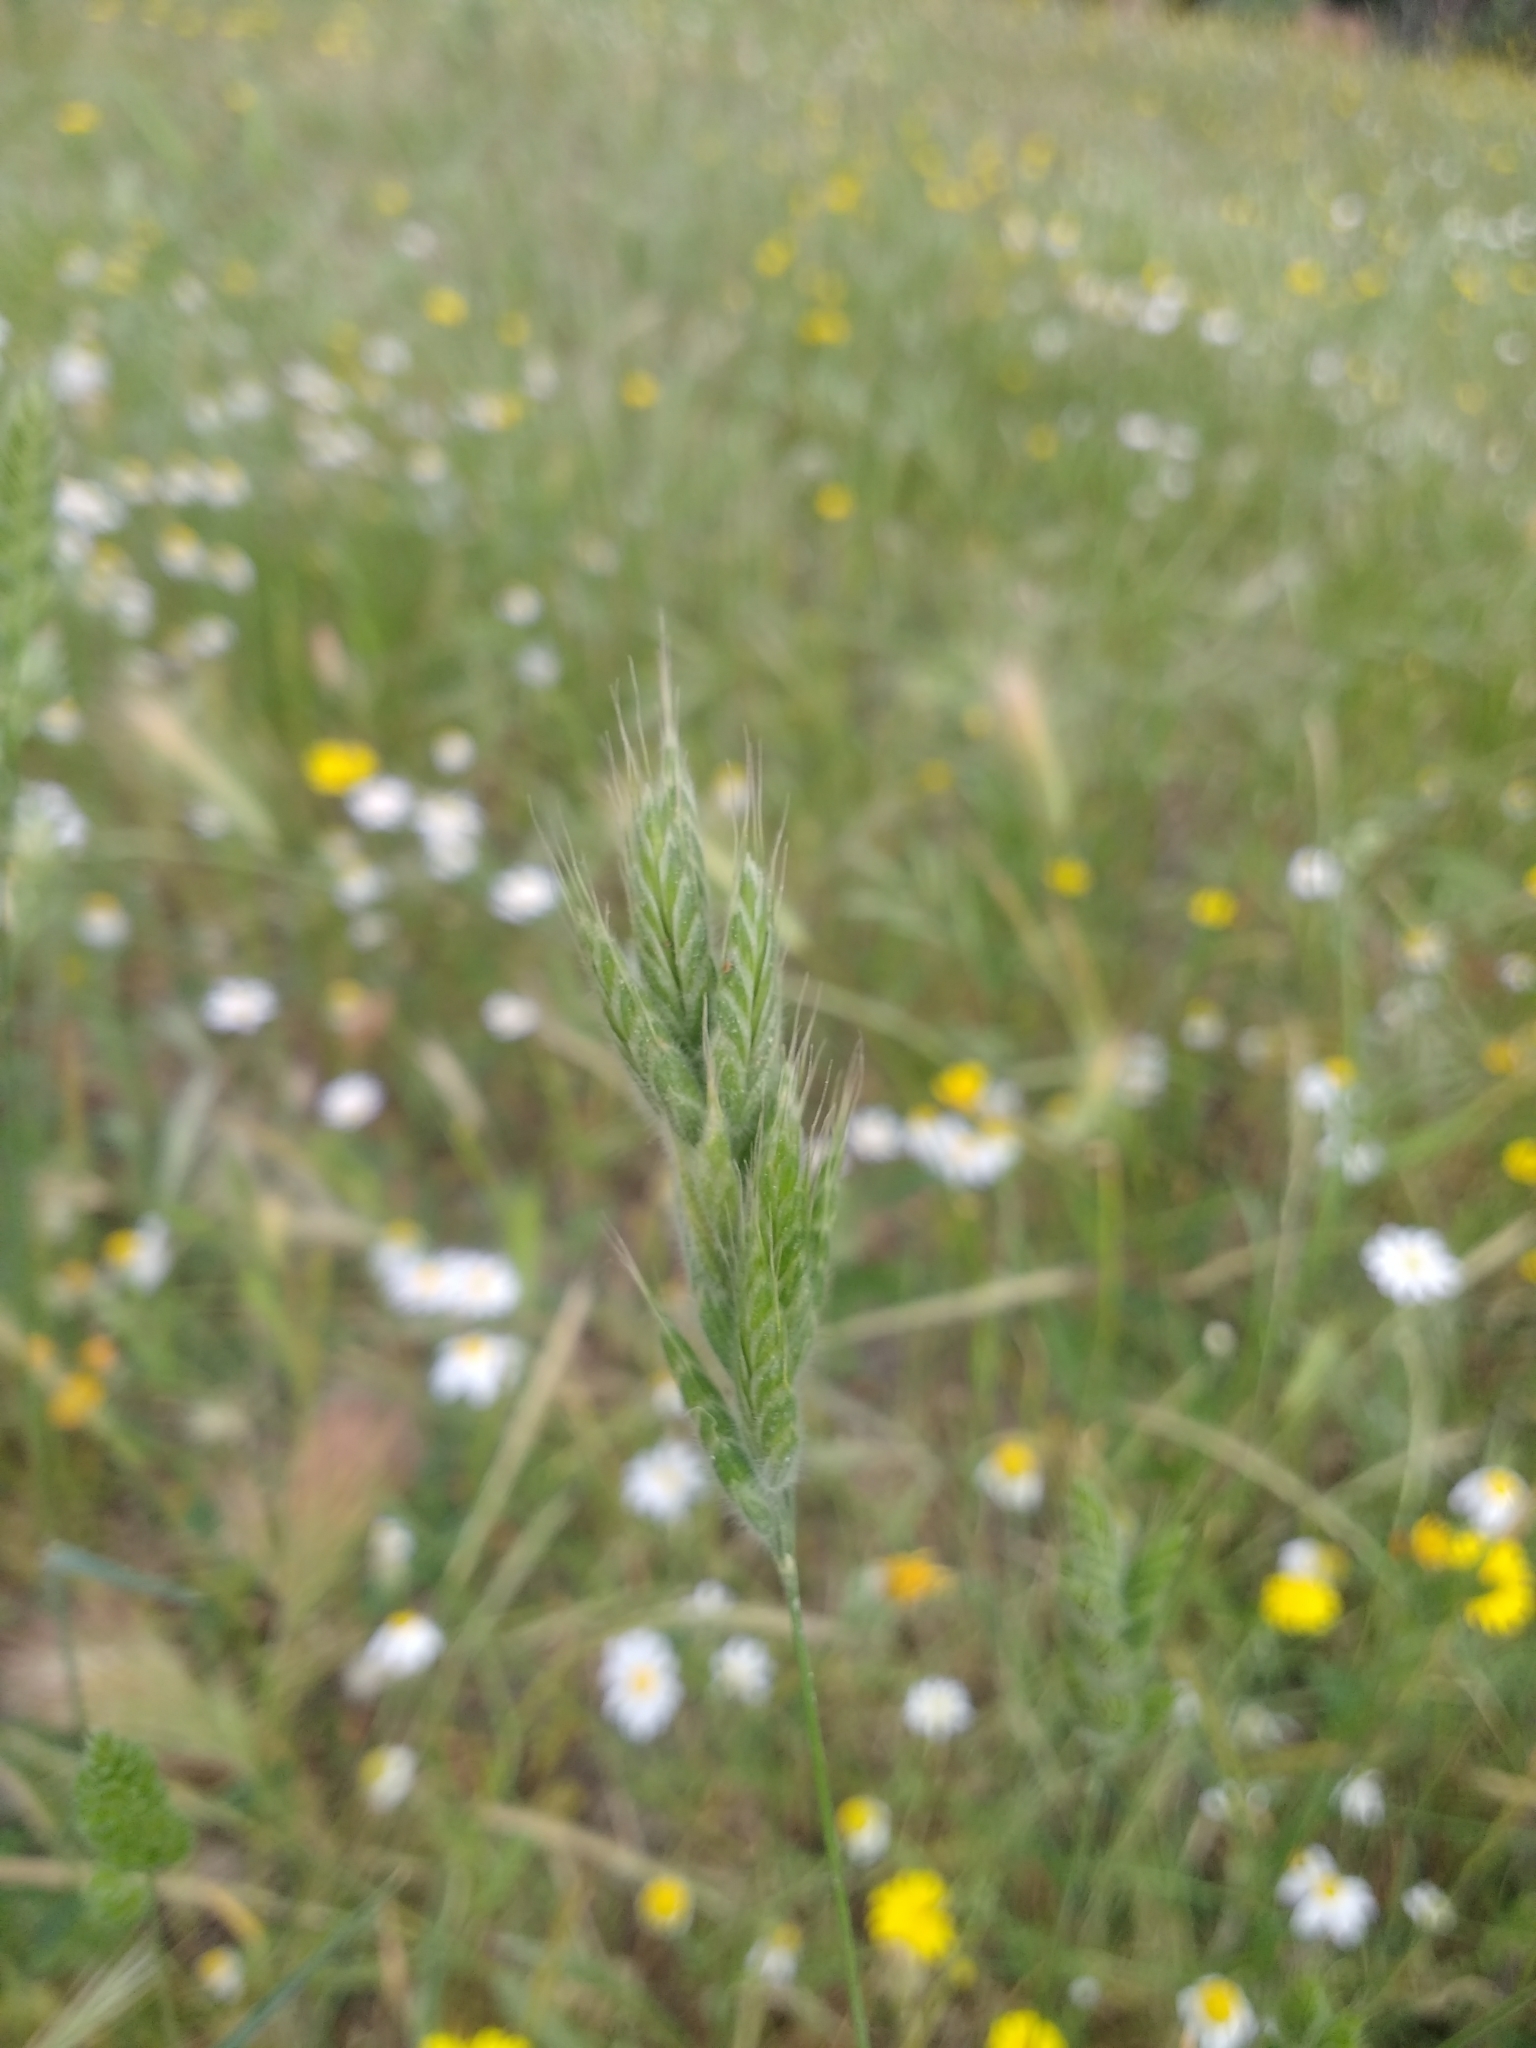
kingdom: Plantae
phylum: Tracheophyta
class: Liliopsida
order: Poales
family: Poaceae
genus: Bromus
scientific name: Bromus hordeaceus
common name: Soft brome
